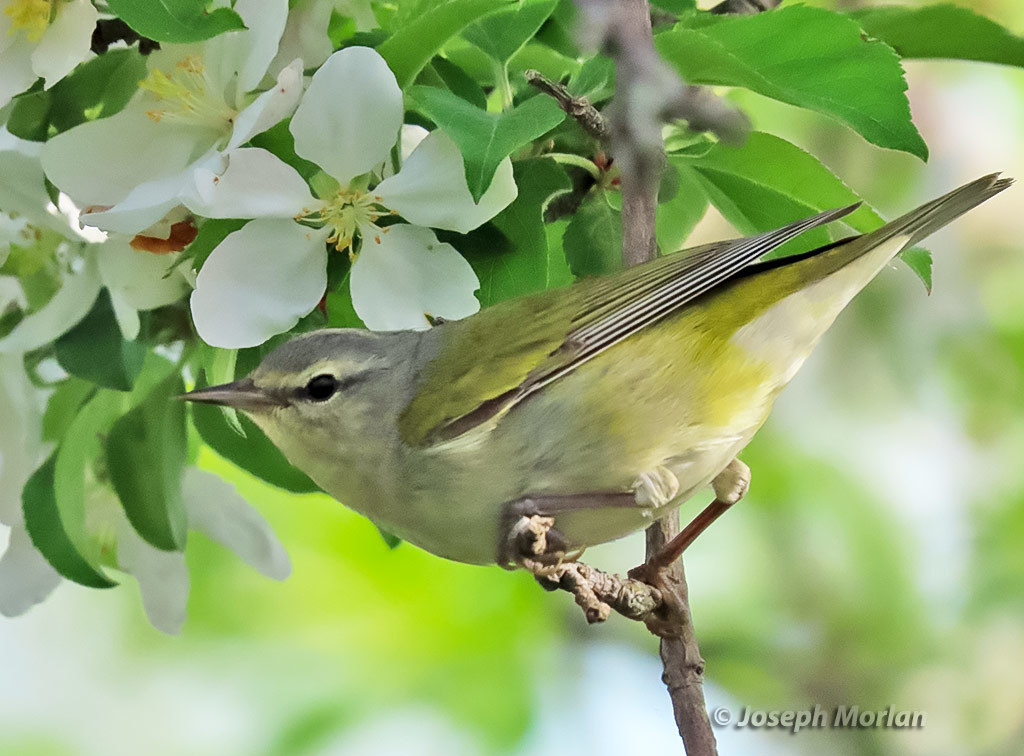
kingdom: Animalia
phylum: Chordata
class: Aves
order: Passeriformes
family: Parulidae
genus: Leiothlypis
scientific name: Leiothlypis peregrina
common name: Tennessee warbler
